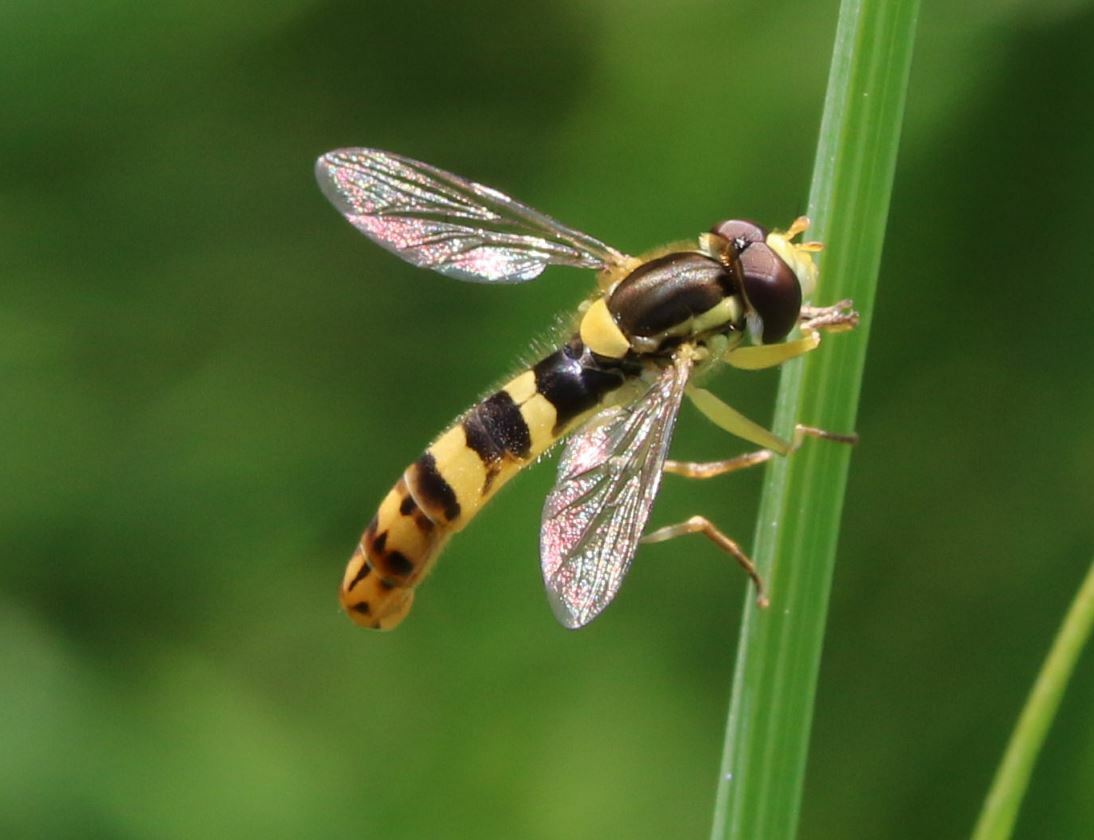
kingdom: Animalia
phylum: Arthropoda
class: Insecta
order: Diptera
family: Syrphidae
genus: Sphaerophoria
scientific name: Sphaerophoria scripta
